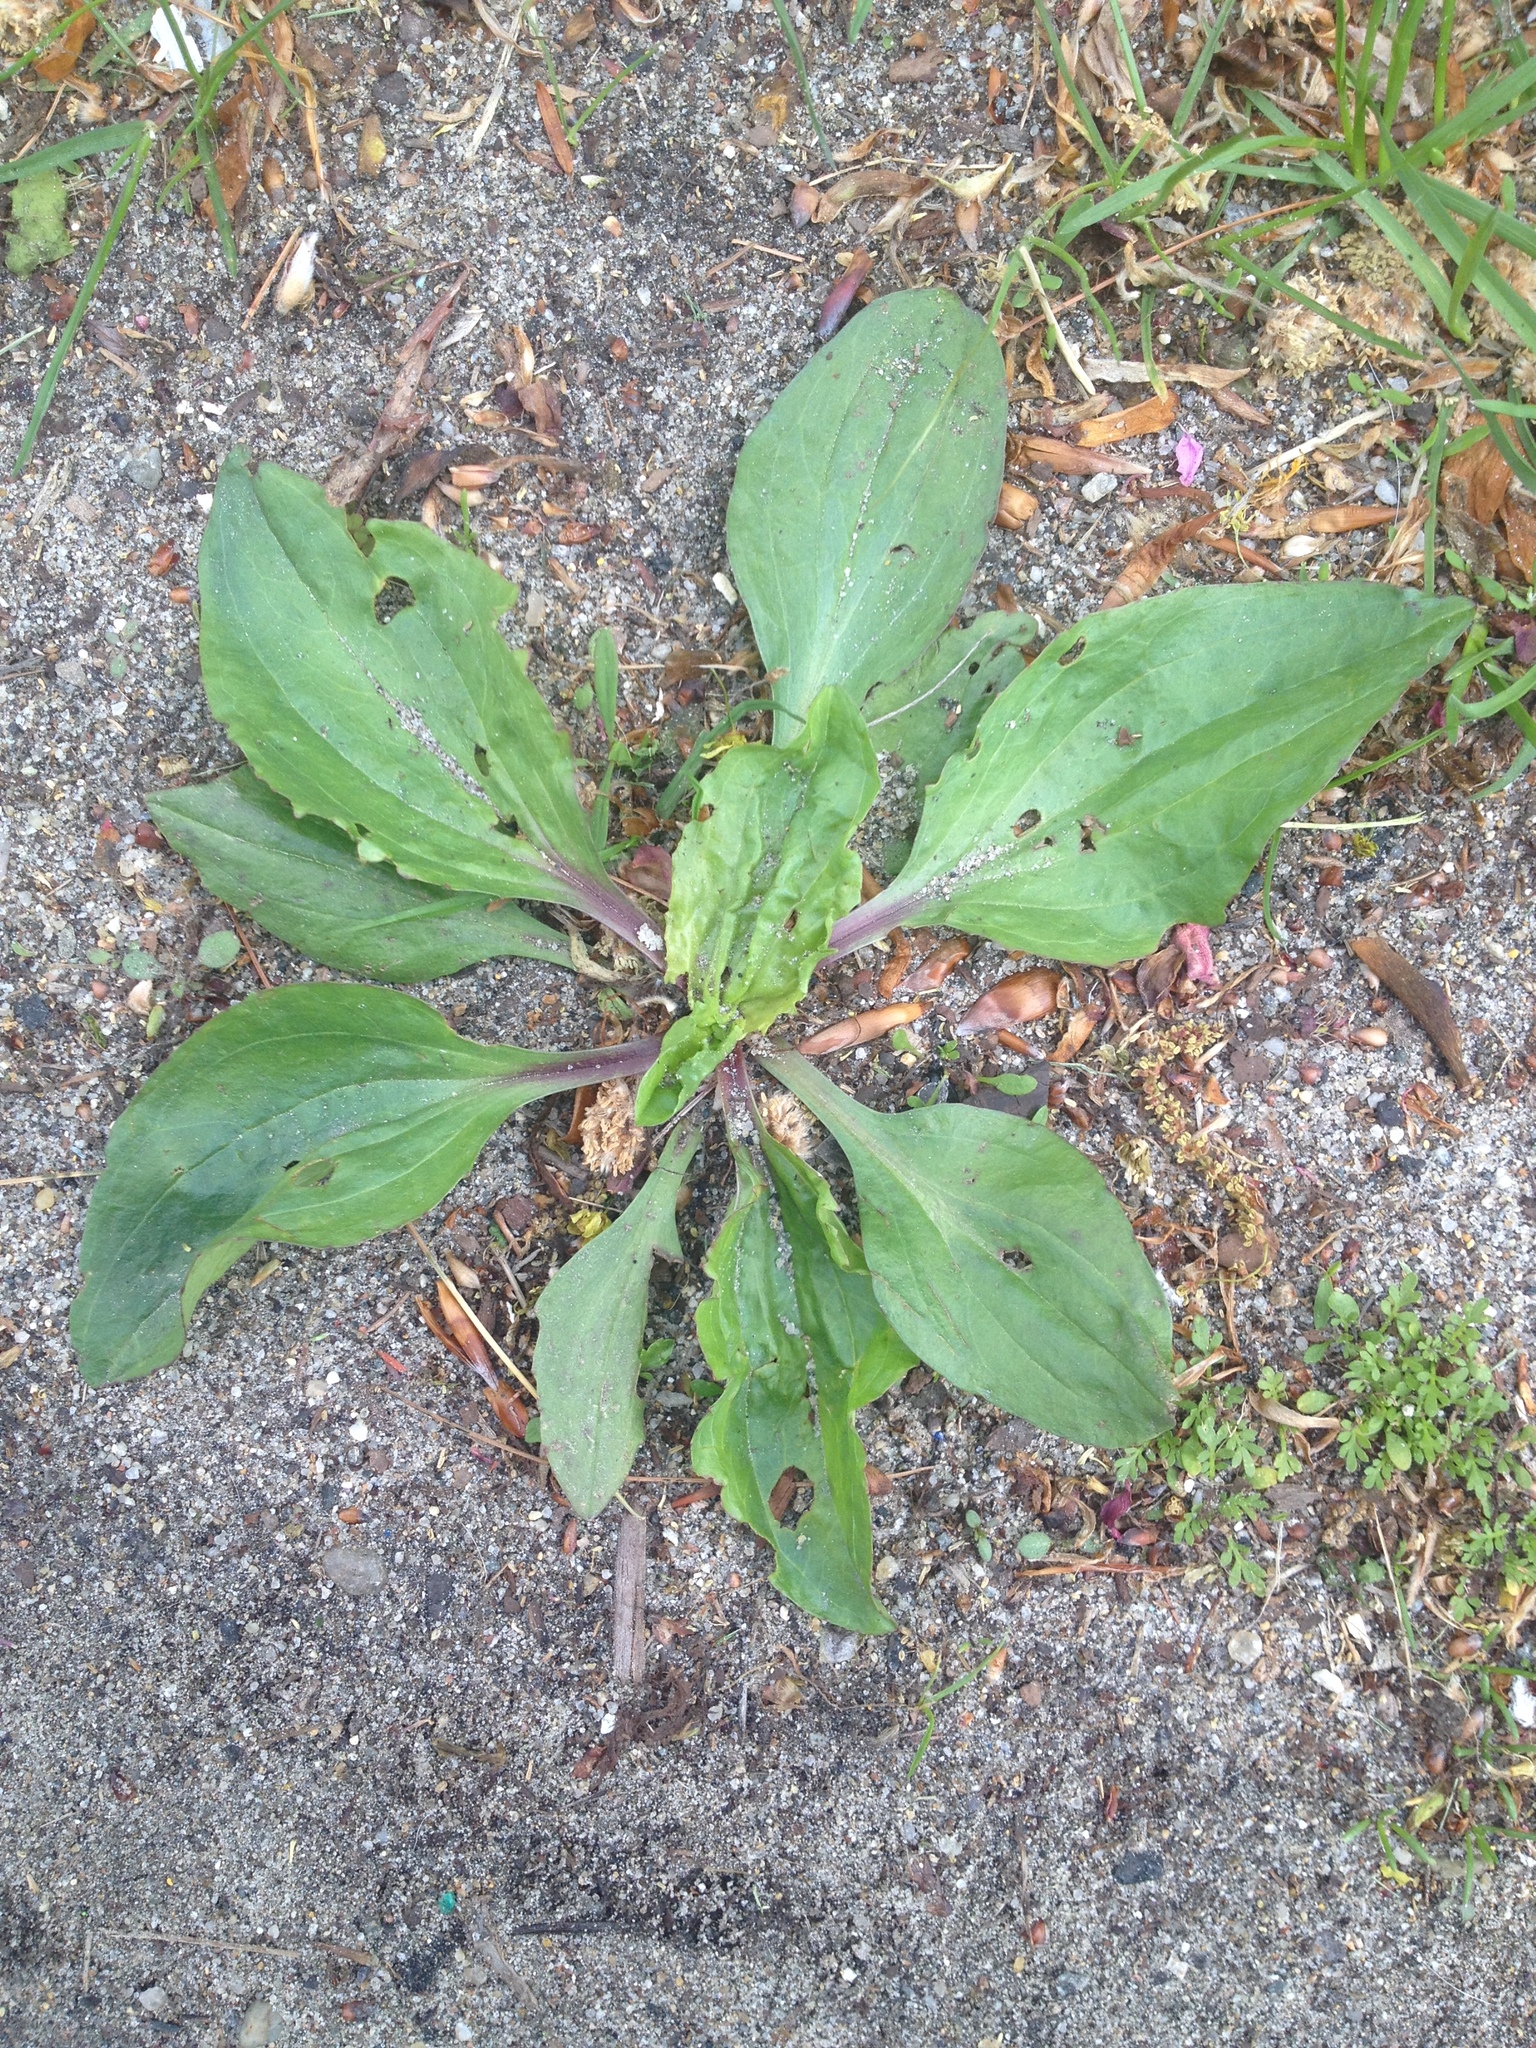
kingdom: Plantae
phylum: Tracheophyta
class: Magnoliopsida
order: Lamiales
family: Plantaginaceae
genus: Plantago
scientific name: Plantago rugelii
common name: American plantain
